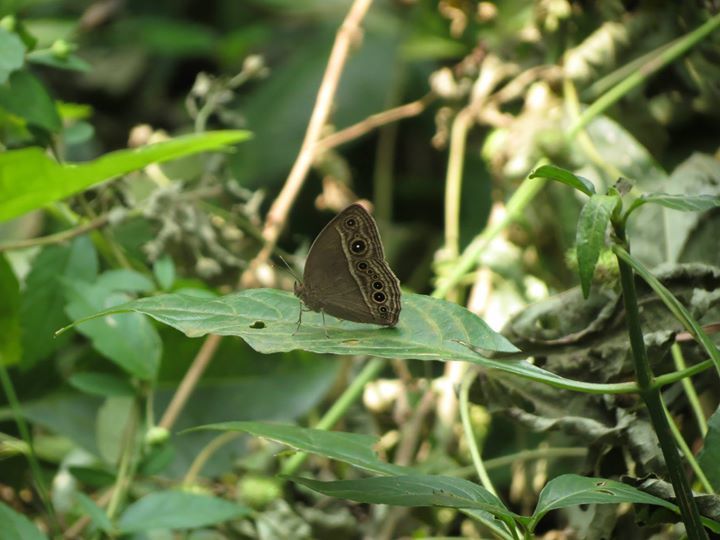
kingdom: Animalia
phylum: Arthropoda
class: Insecta
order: Lepidoptera
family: Nymphalidae
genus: Mycalesis
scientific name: Mycalesis visala
